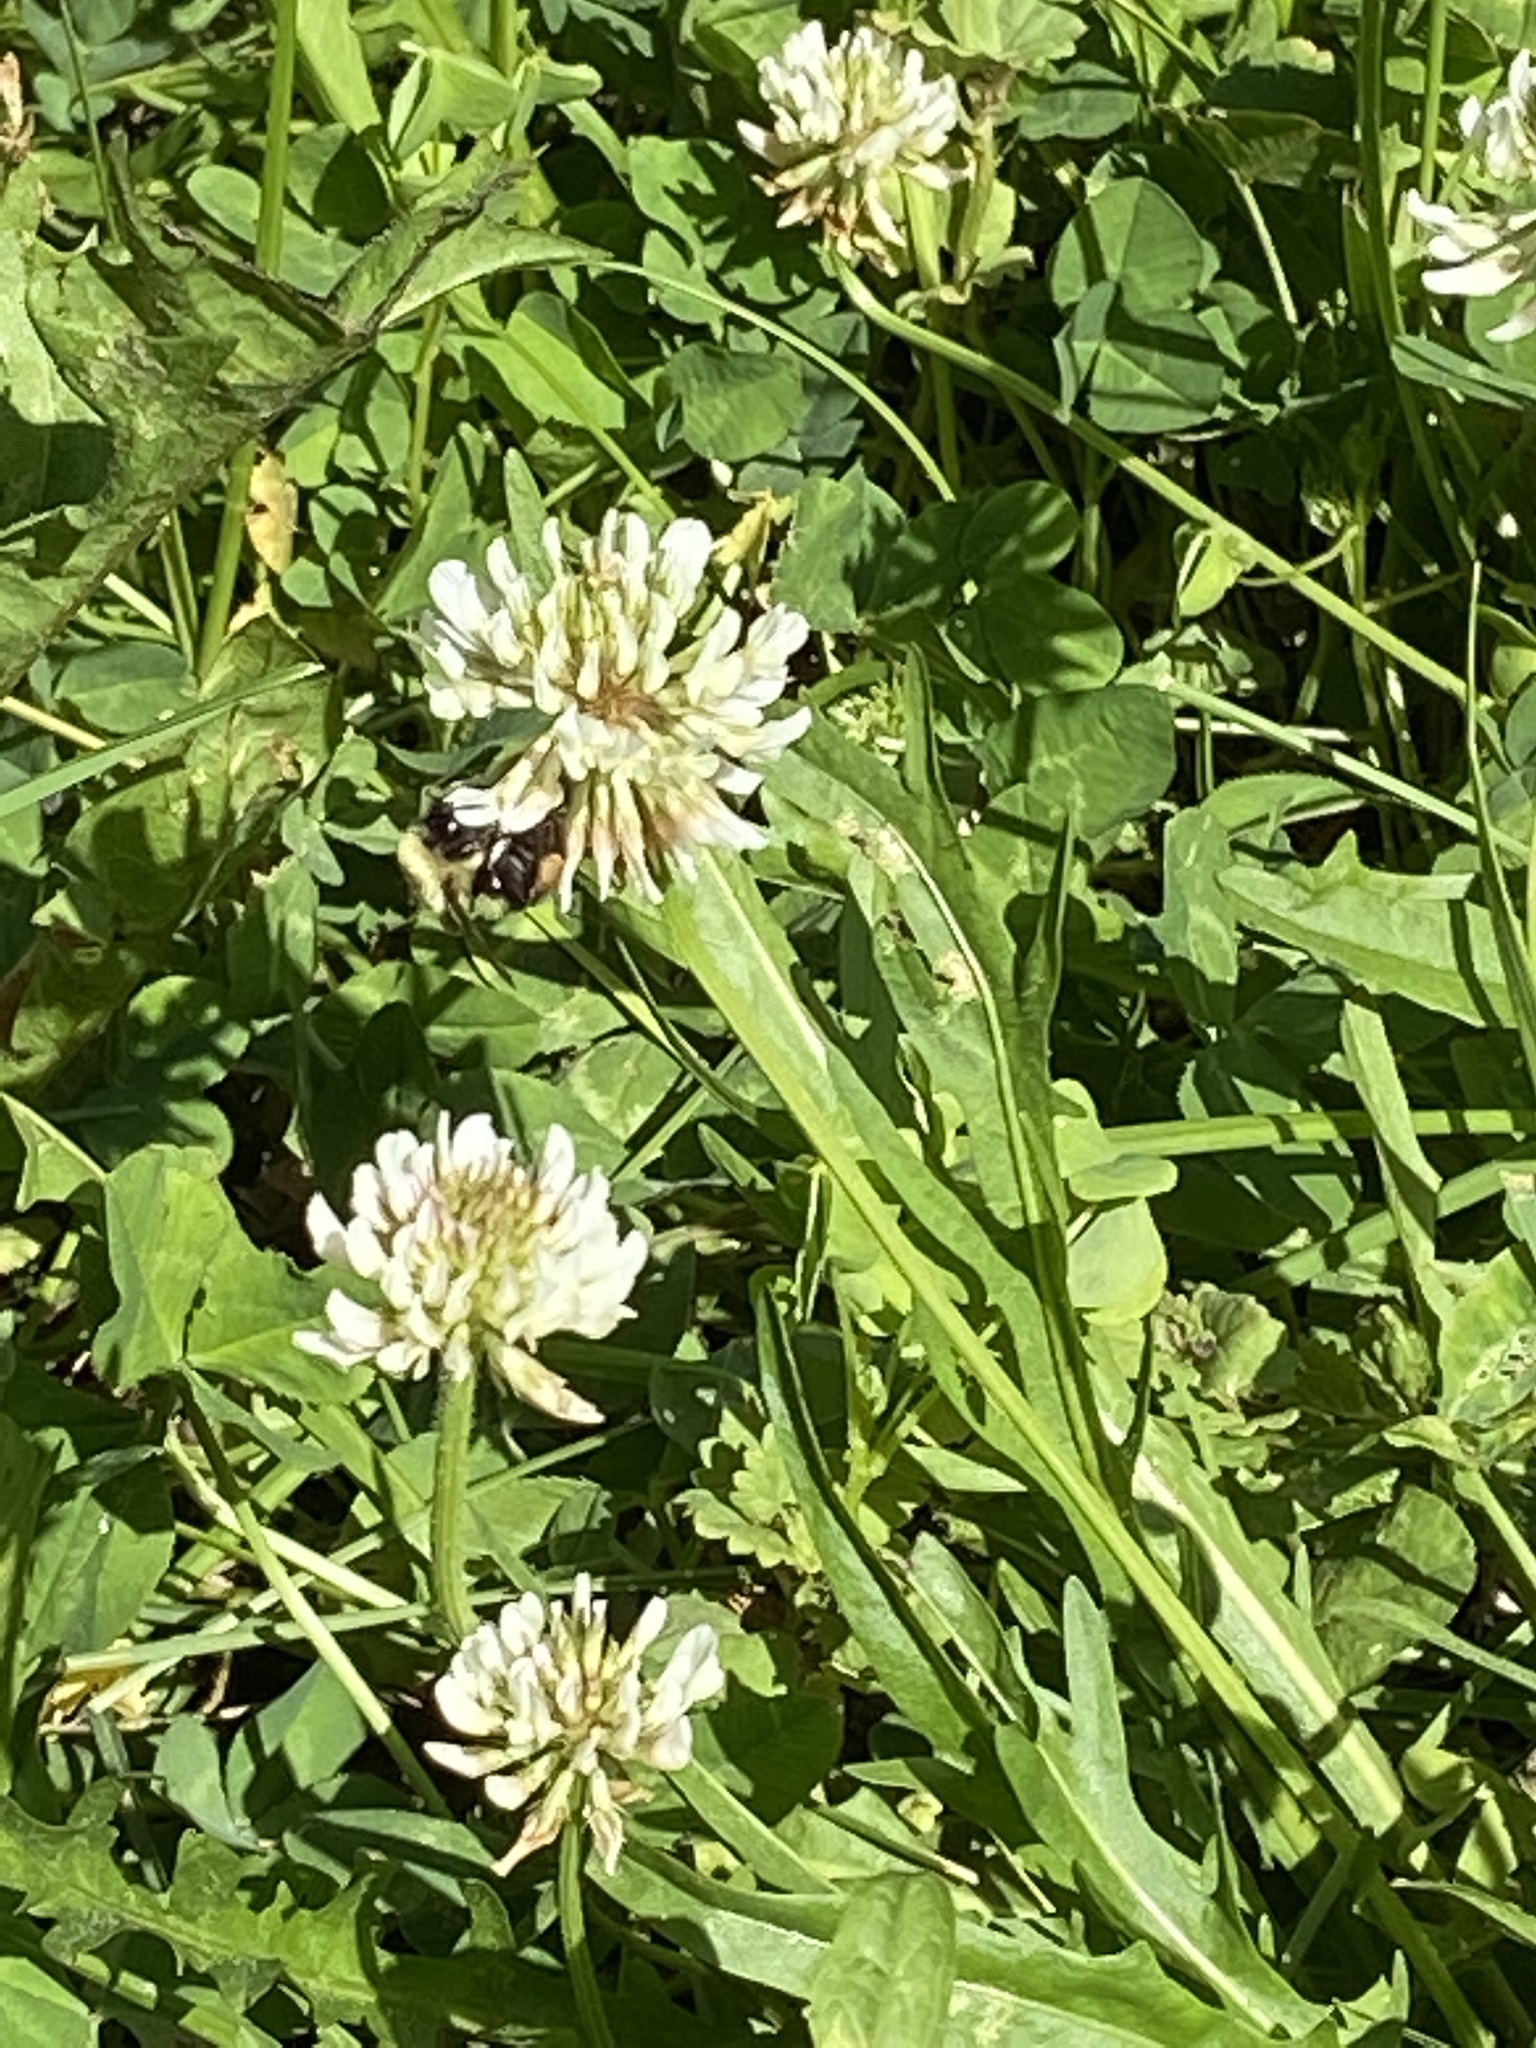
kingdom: Animalia
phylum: Arthropoda
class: Insecta
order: Hymenoptera
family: Apidae
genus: Bombus
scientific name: Bombus bimaculatus
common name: Two-spotted bumble bee
